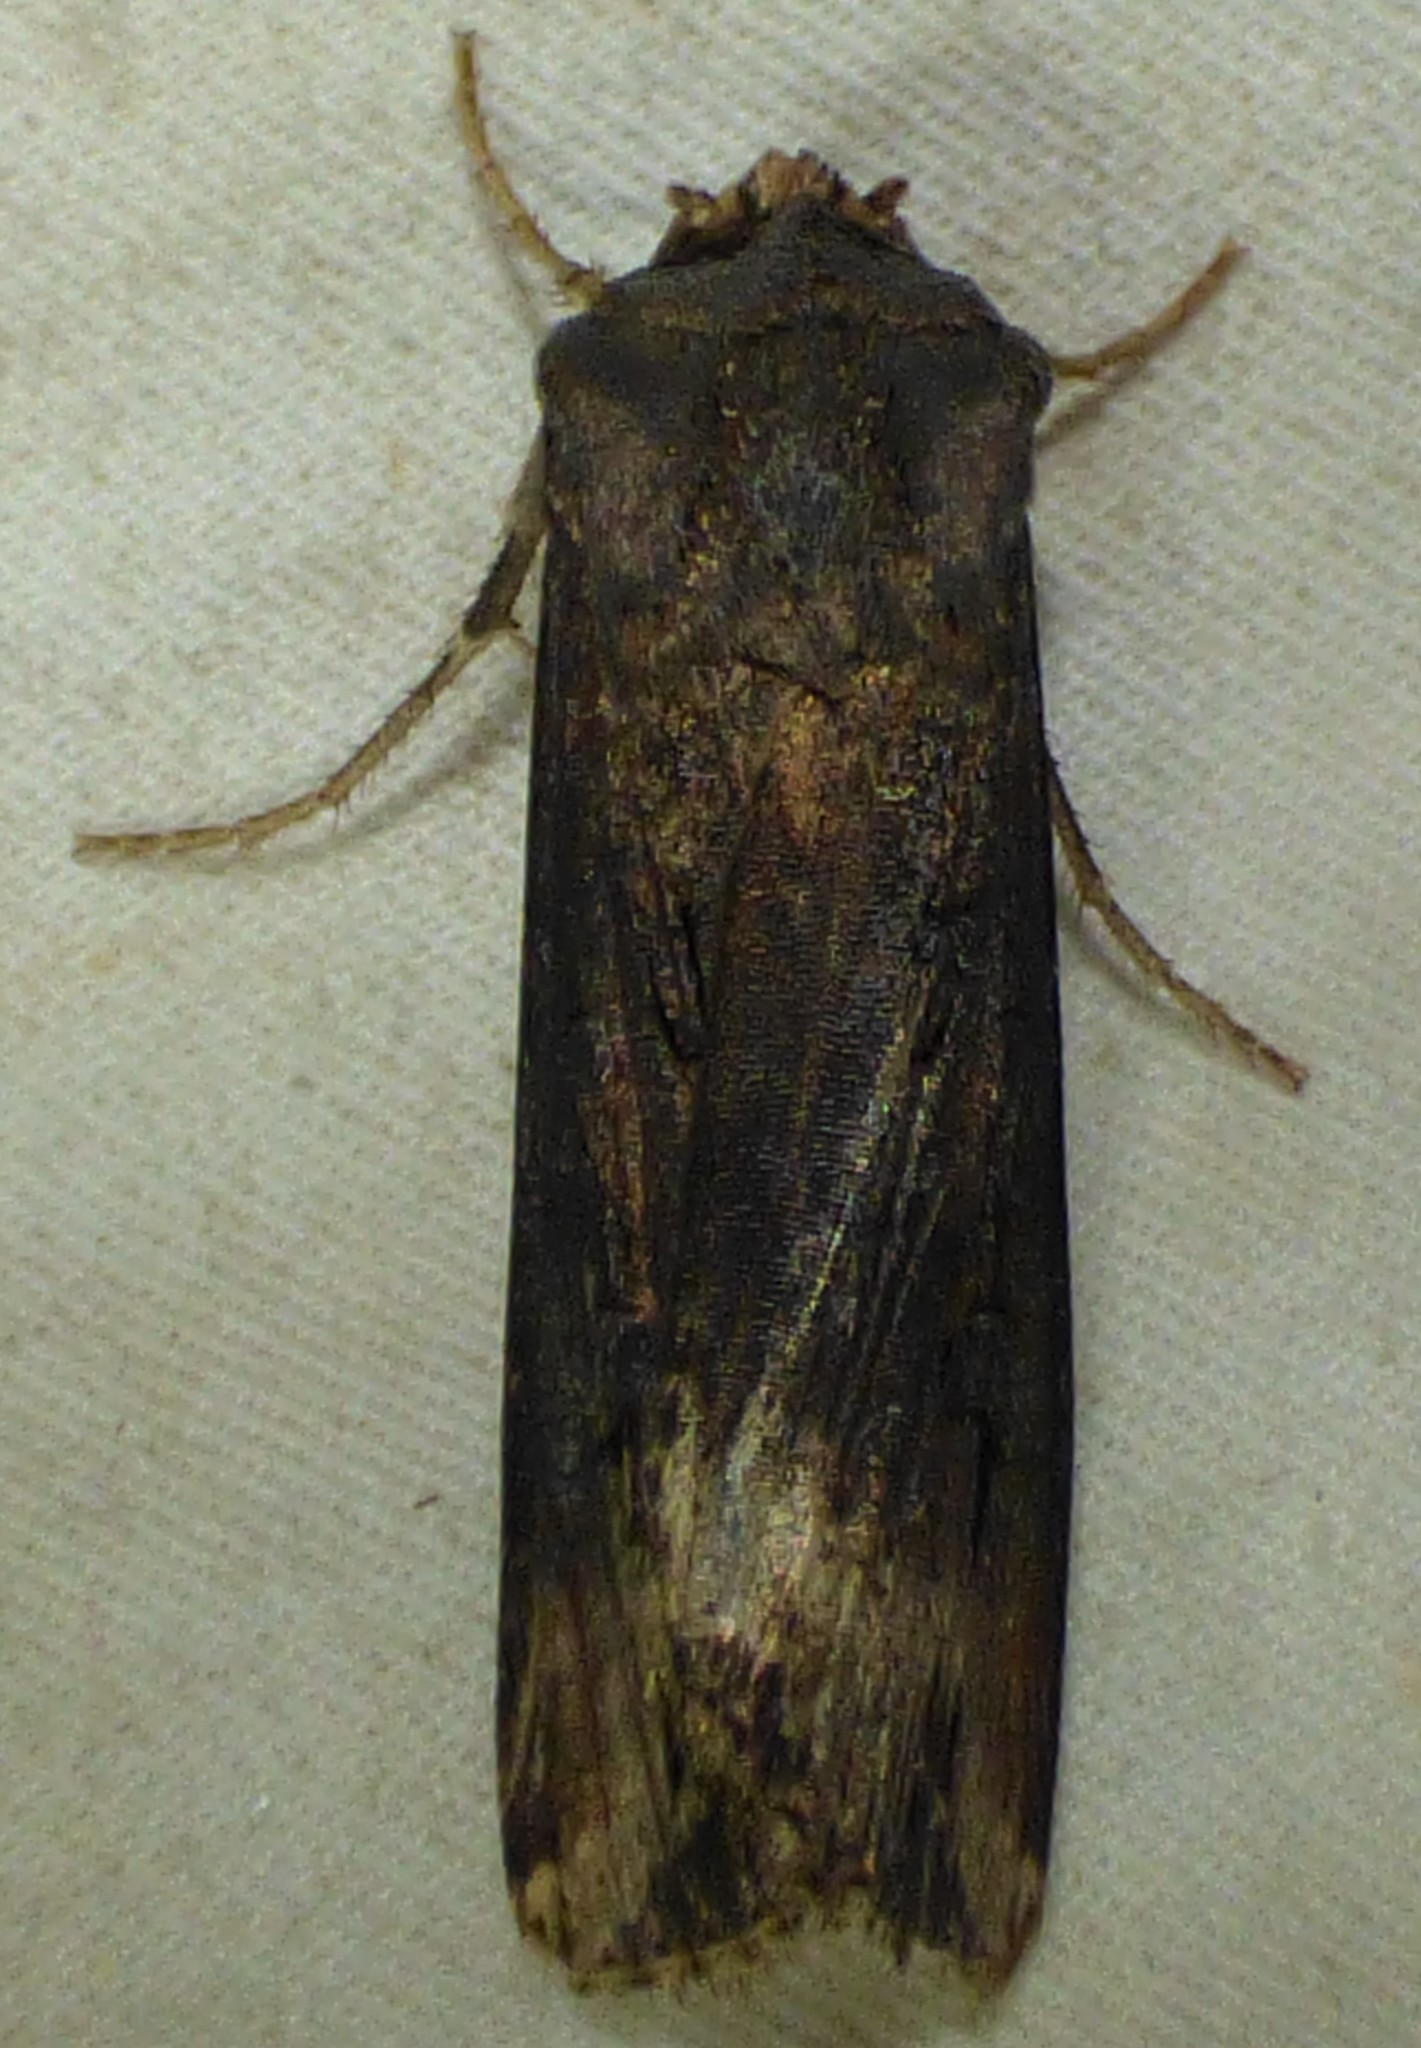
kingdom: Animalia
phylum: Arthropoda
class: Insecta
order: Lepidoptera
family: Noctuidae
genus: Agrotis
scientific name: Agrotis ipsilon
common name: Dark sword-grass
